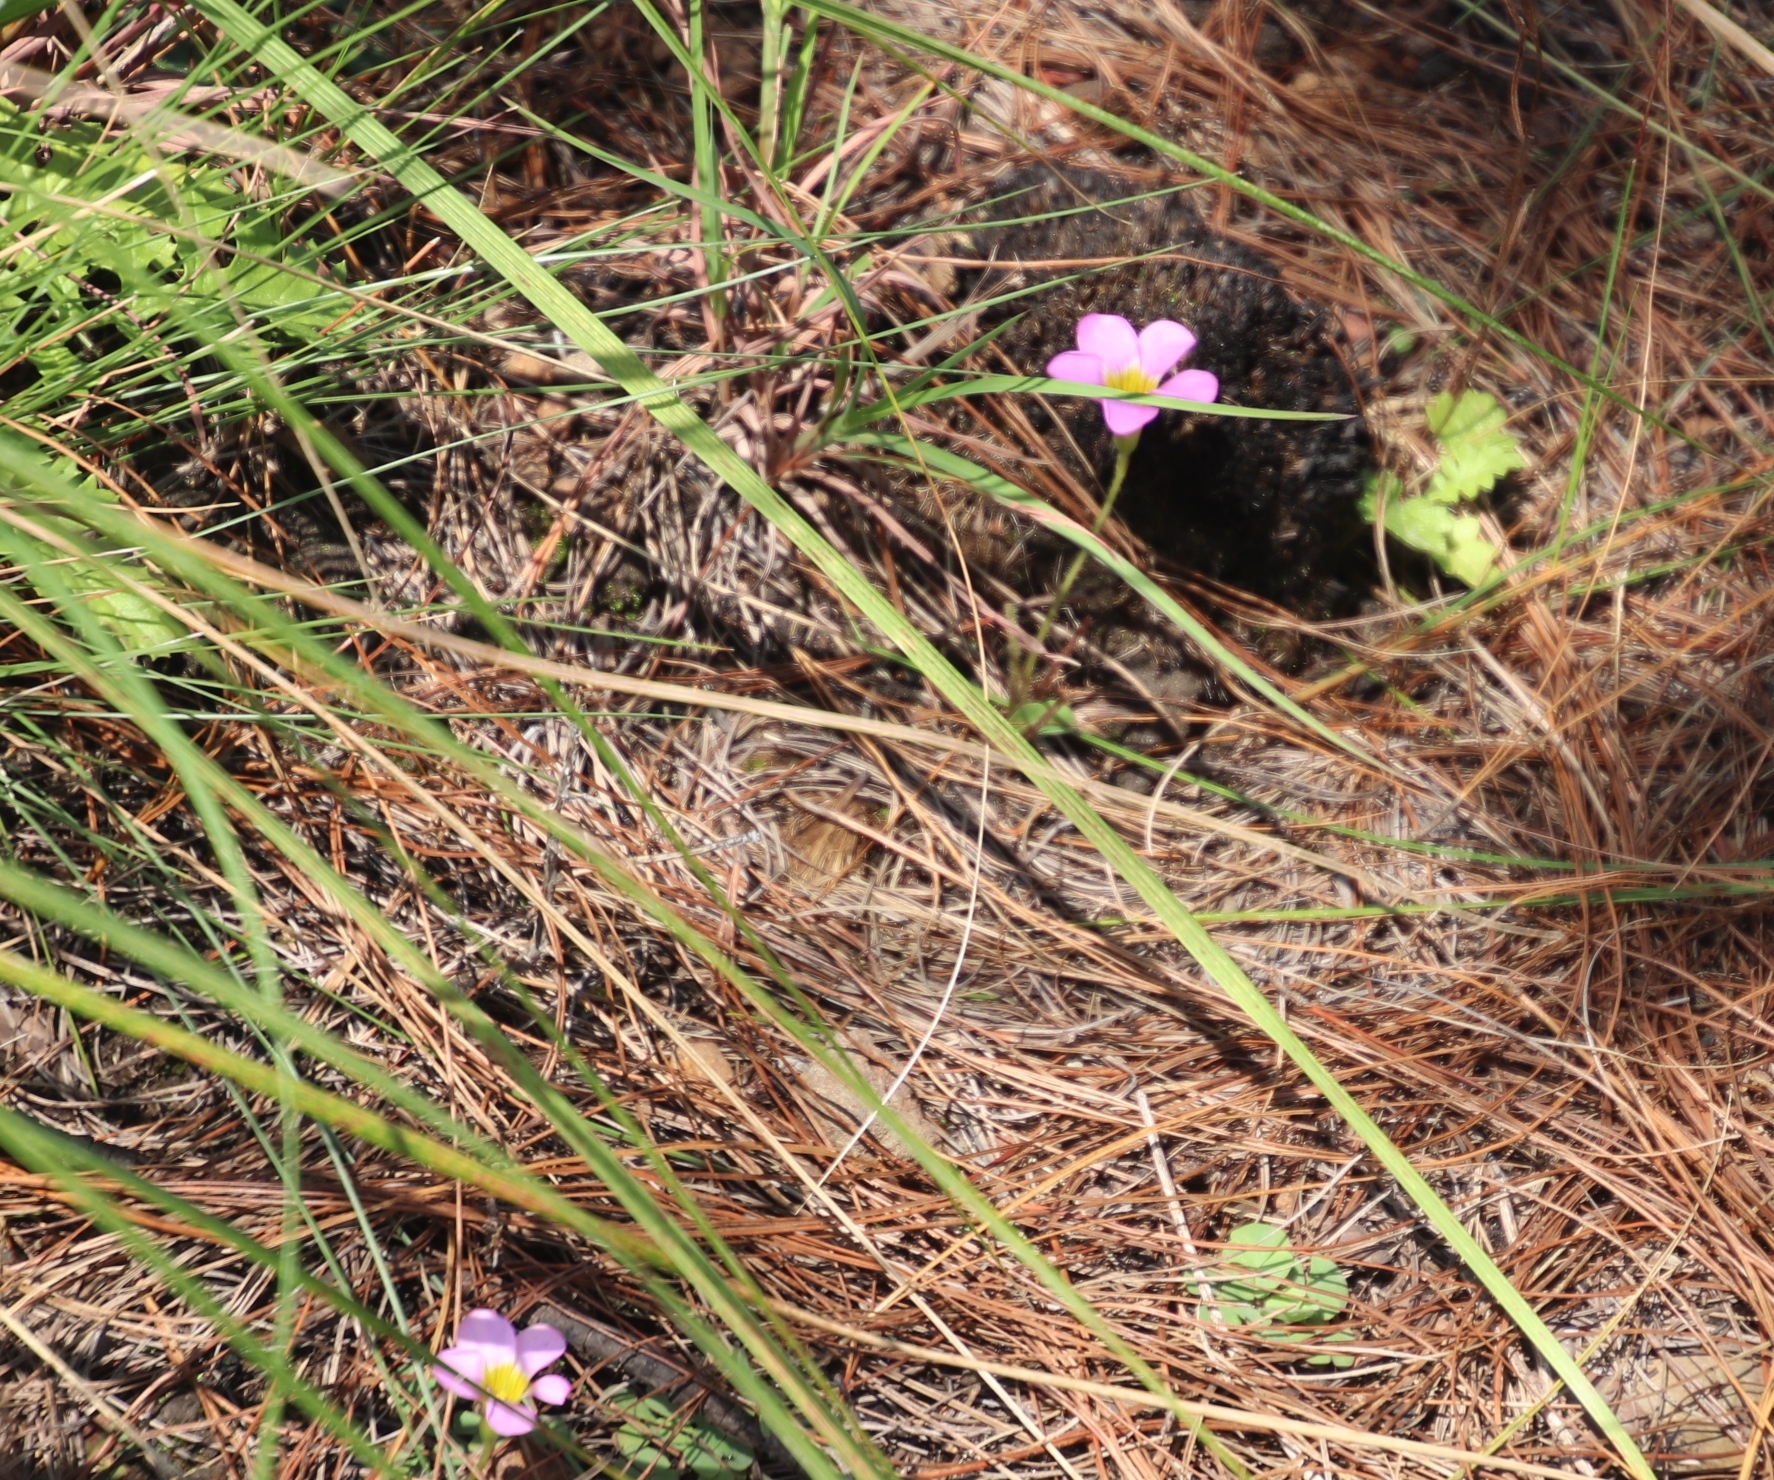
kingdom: Plantae
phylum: Tracheophyta
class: Magnoliopsida
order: Oxalidales
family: Oxalidaceae
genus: Oxalis
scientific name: Oxalis obliquifolia
